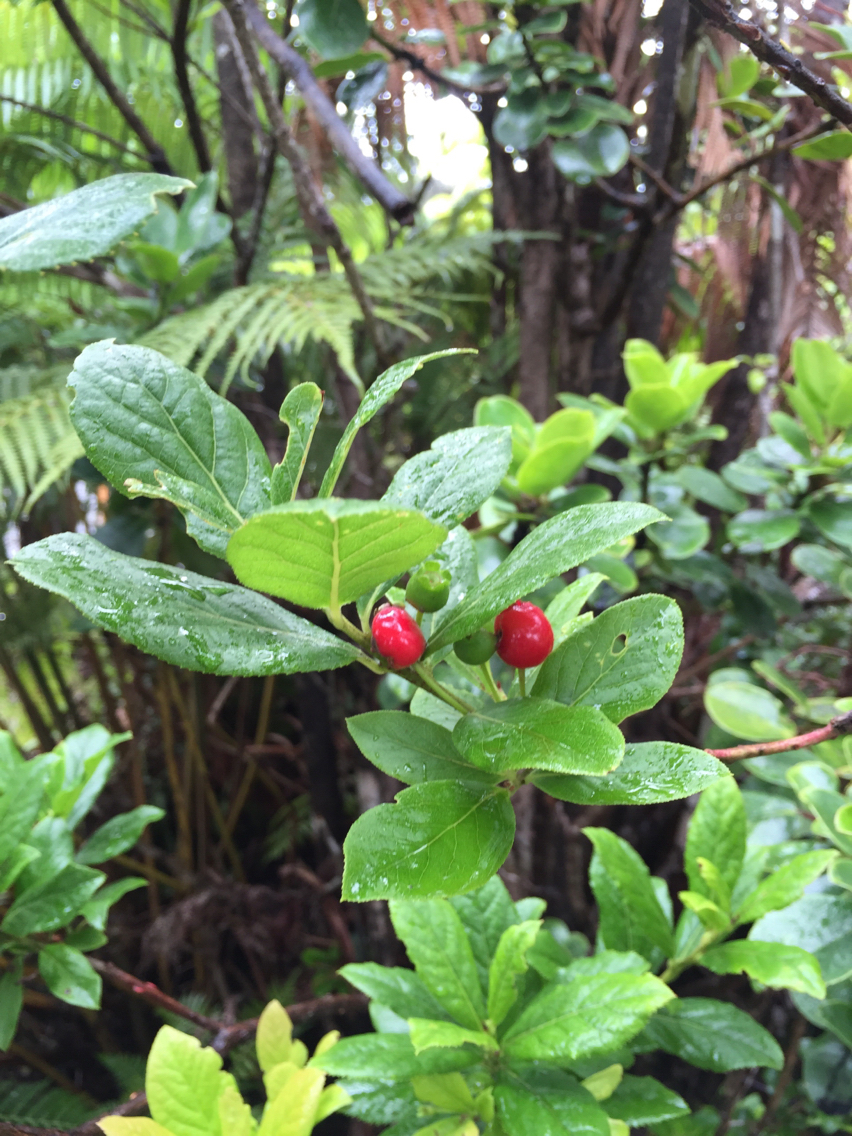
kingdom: Plantae
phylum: Tracheophyta
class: Magnoliopsida
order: Ericales
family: Ericaceae
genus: Vaccinium
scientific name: Vaccinium calycinum
